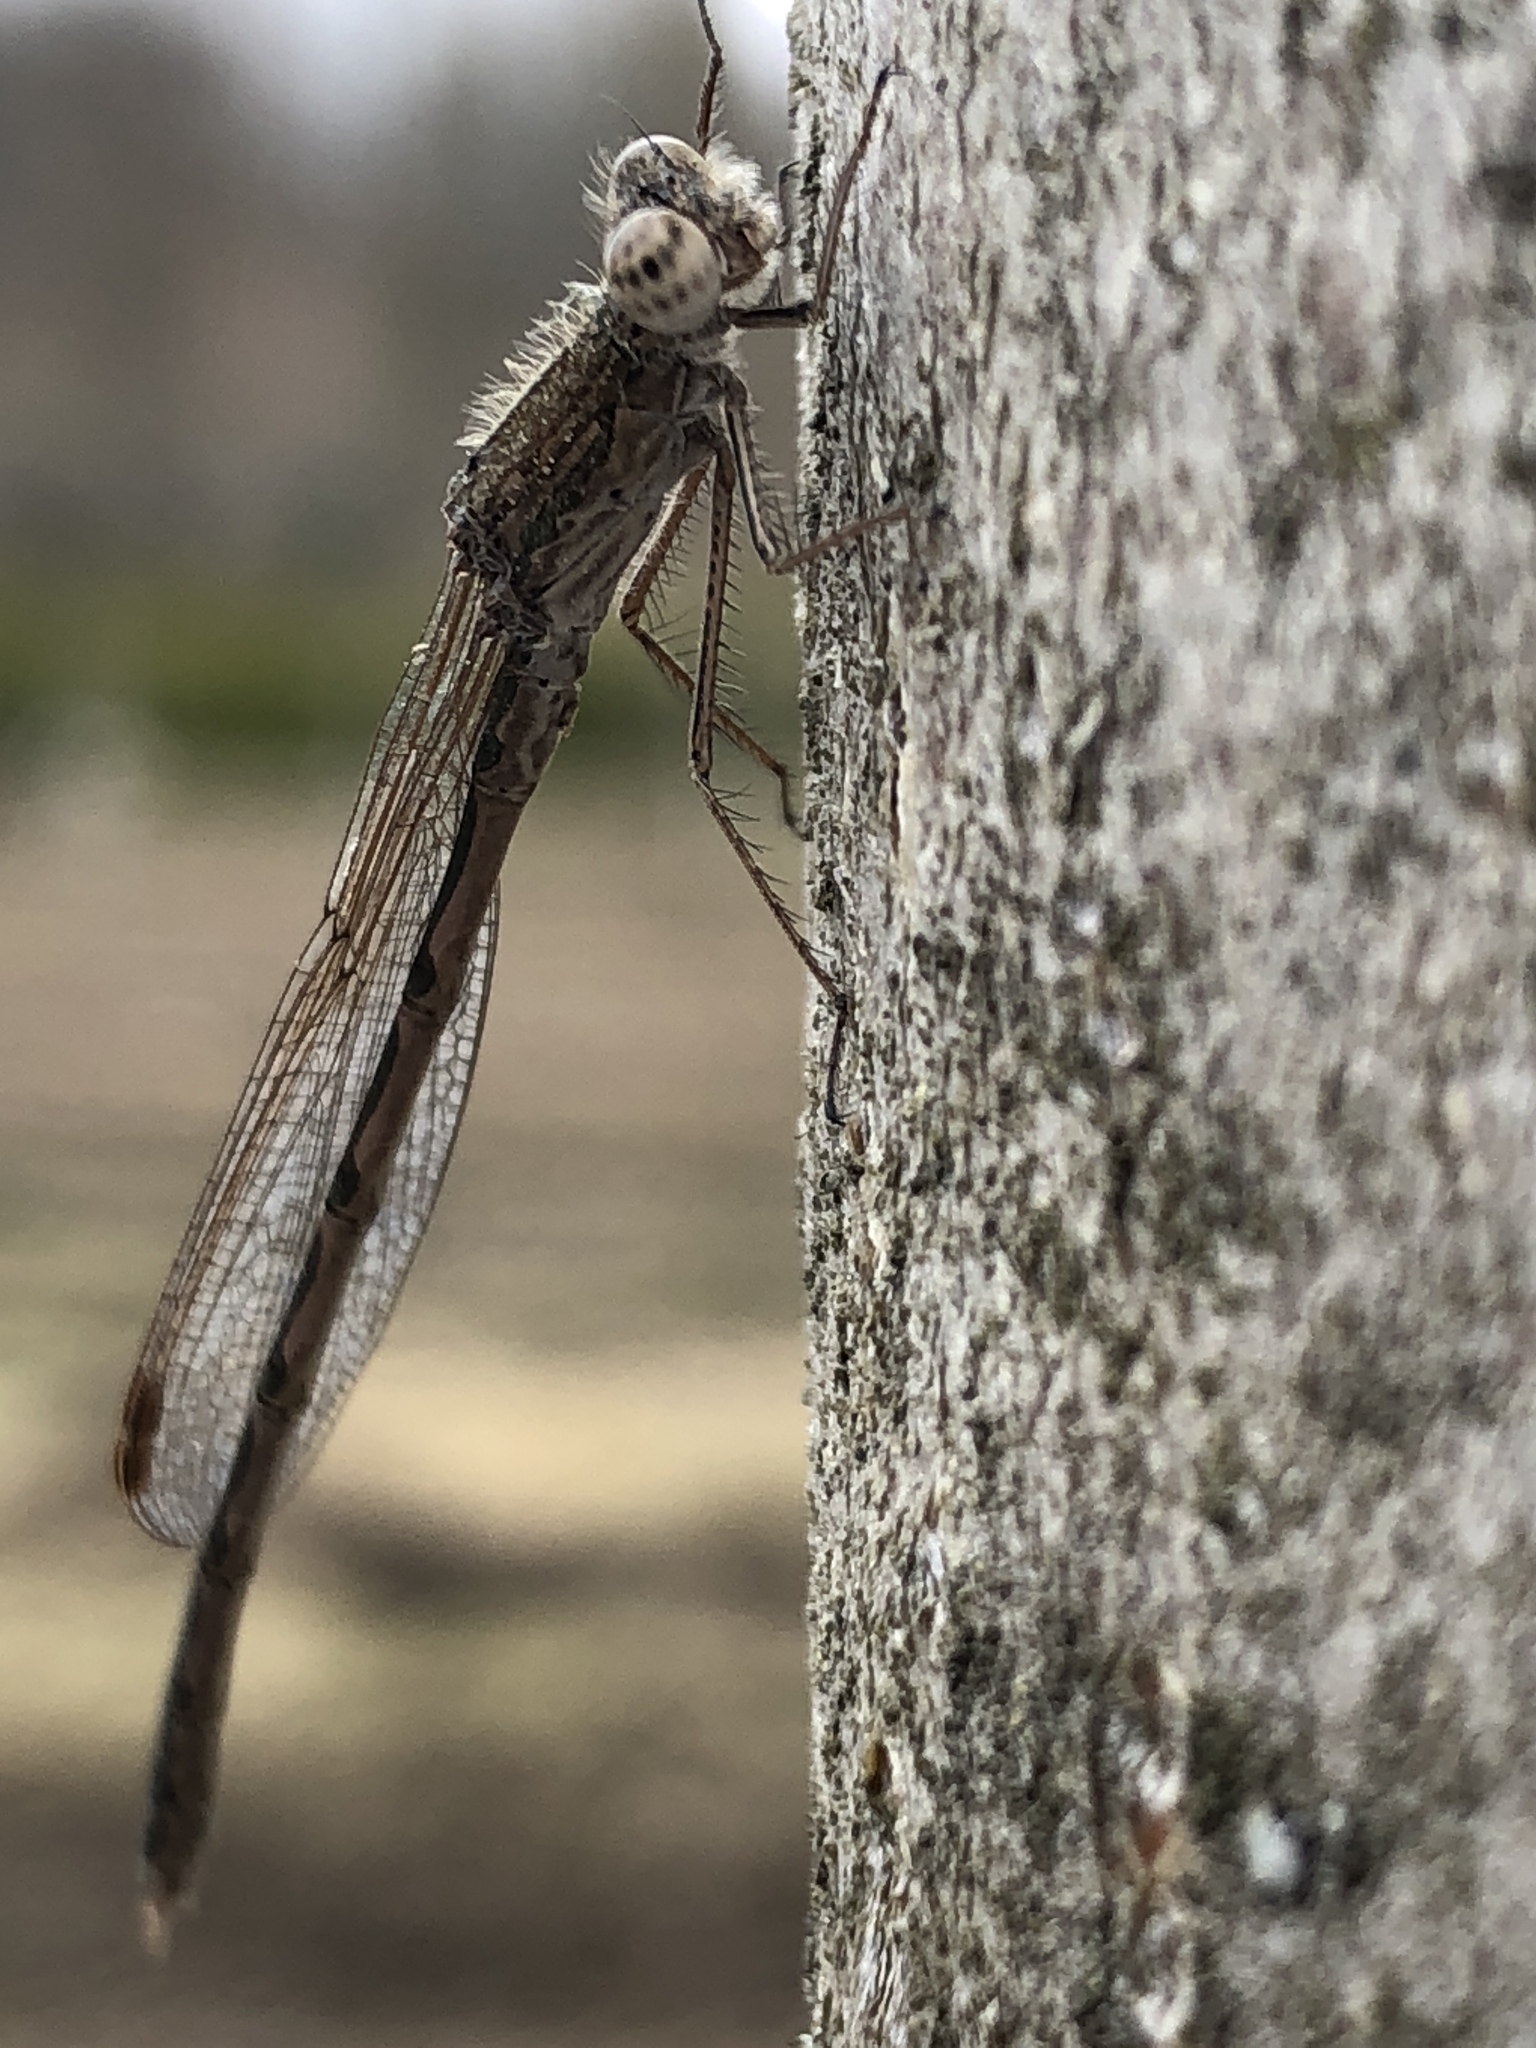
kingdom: Animalia
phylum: Arthropoda
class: Insecta
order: Odonata
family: Lestidae
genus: Sympecma
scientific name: Sympecma paedisca
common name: Siberian winter damsel
